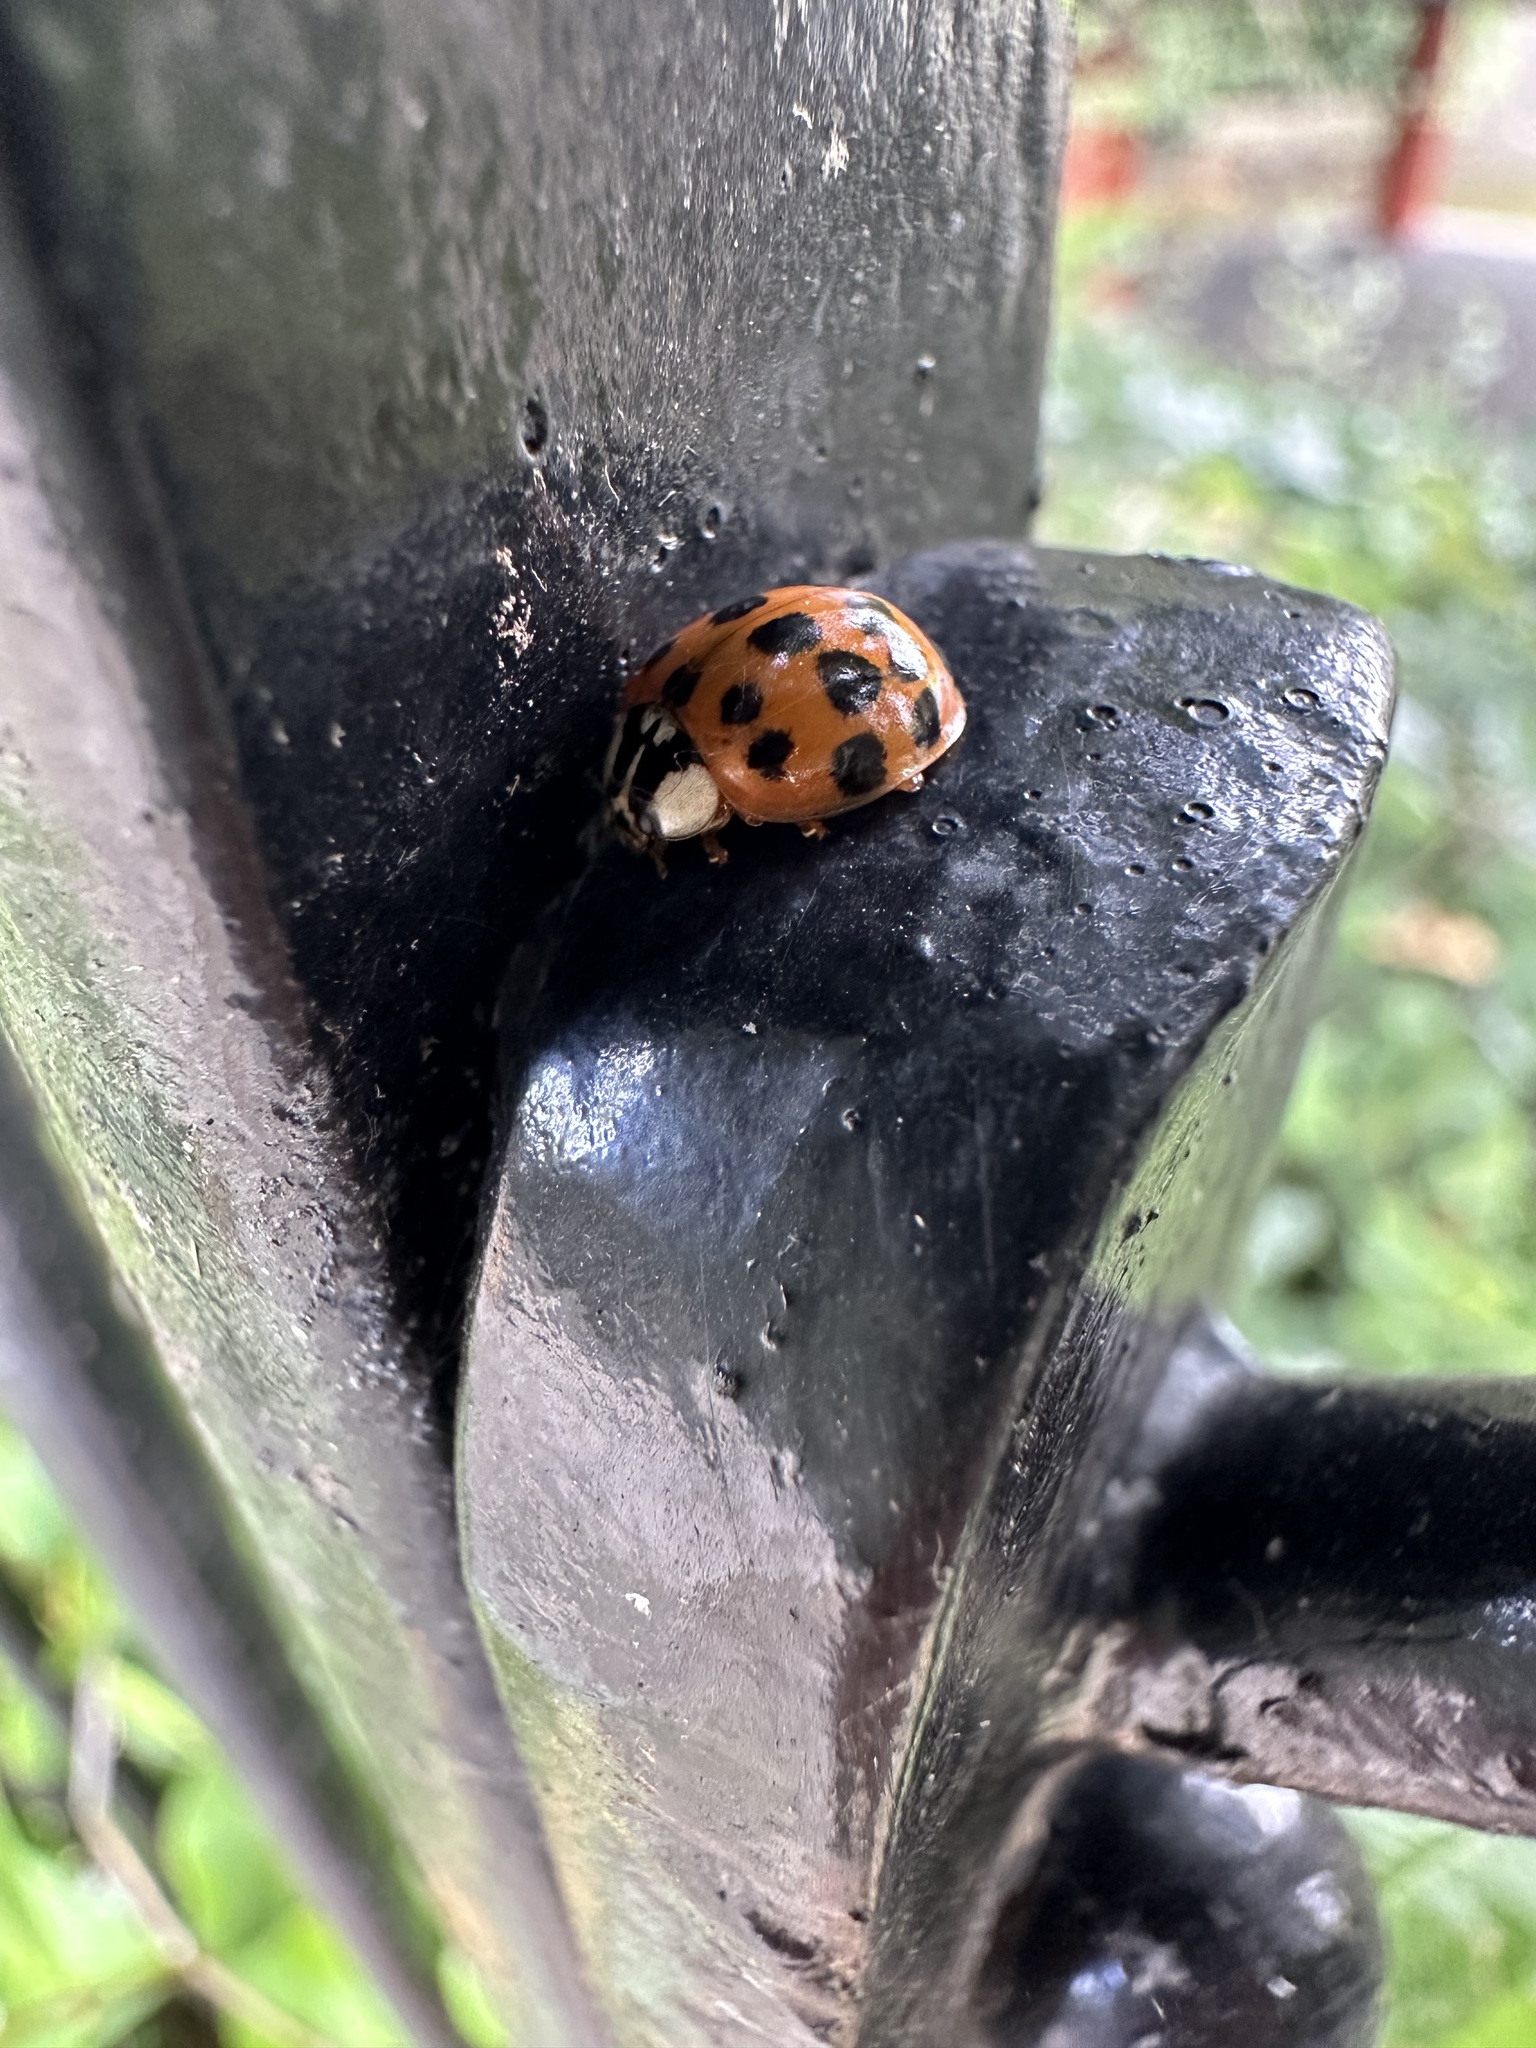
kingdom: Animalia
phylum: Arthropoda
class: Insecta
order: Coleoptera
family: Coccinellidae
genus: Harmonia
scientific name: Harmonia axyridis
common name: Harlequin ladybird
